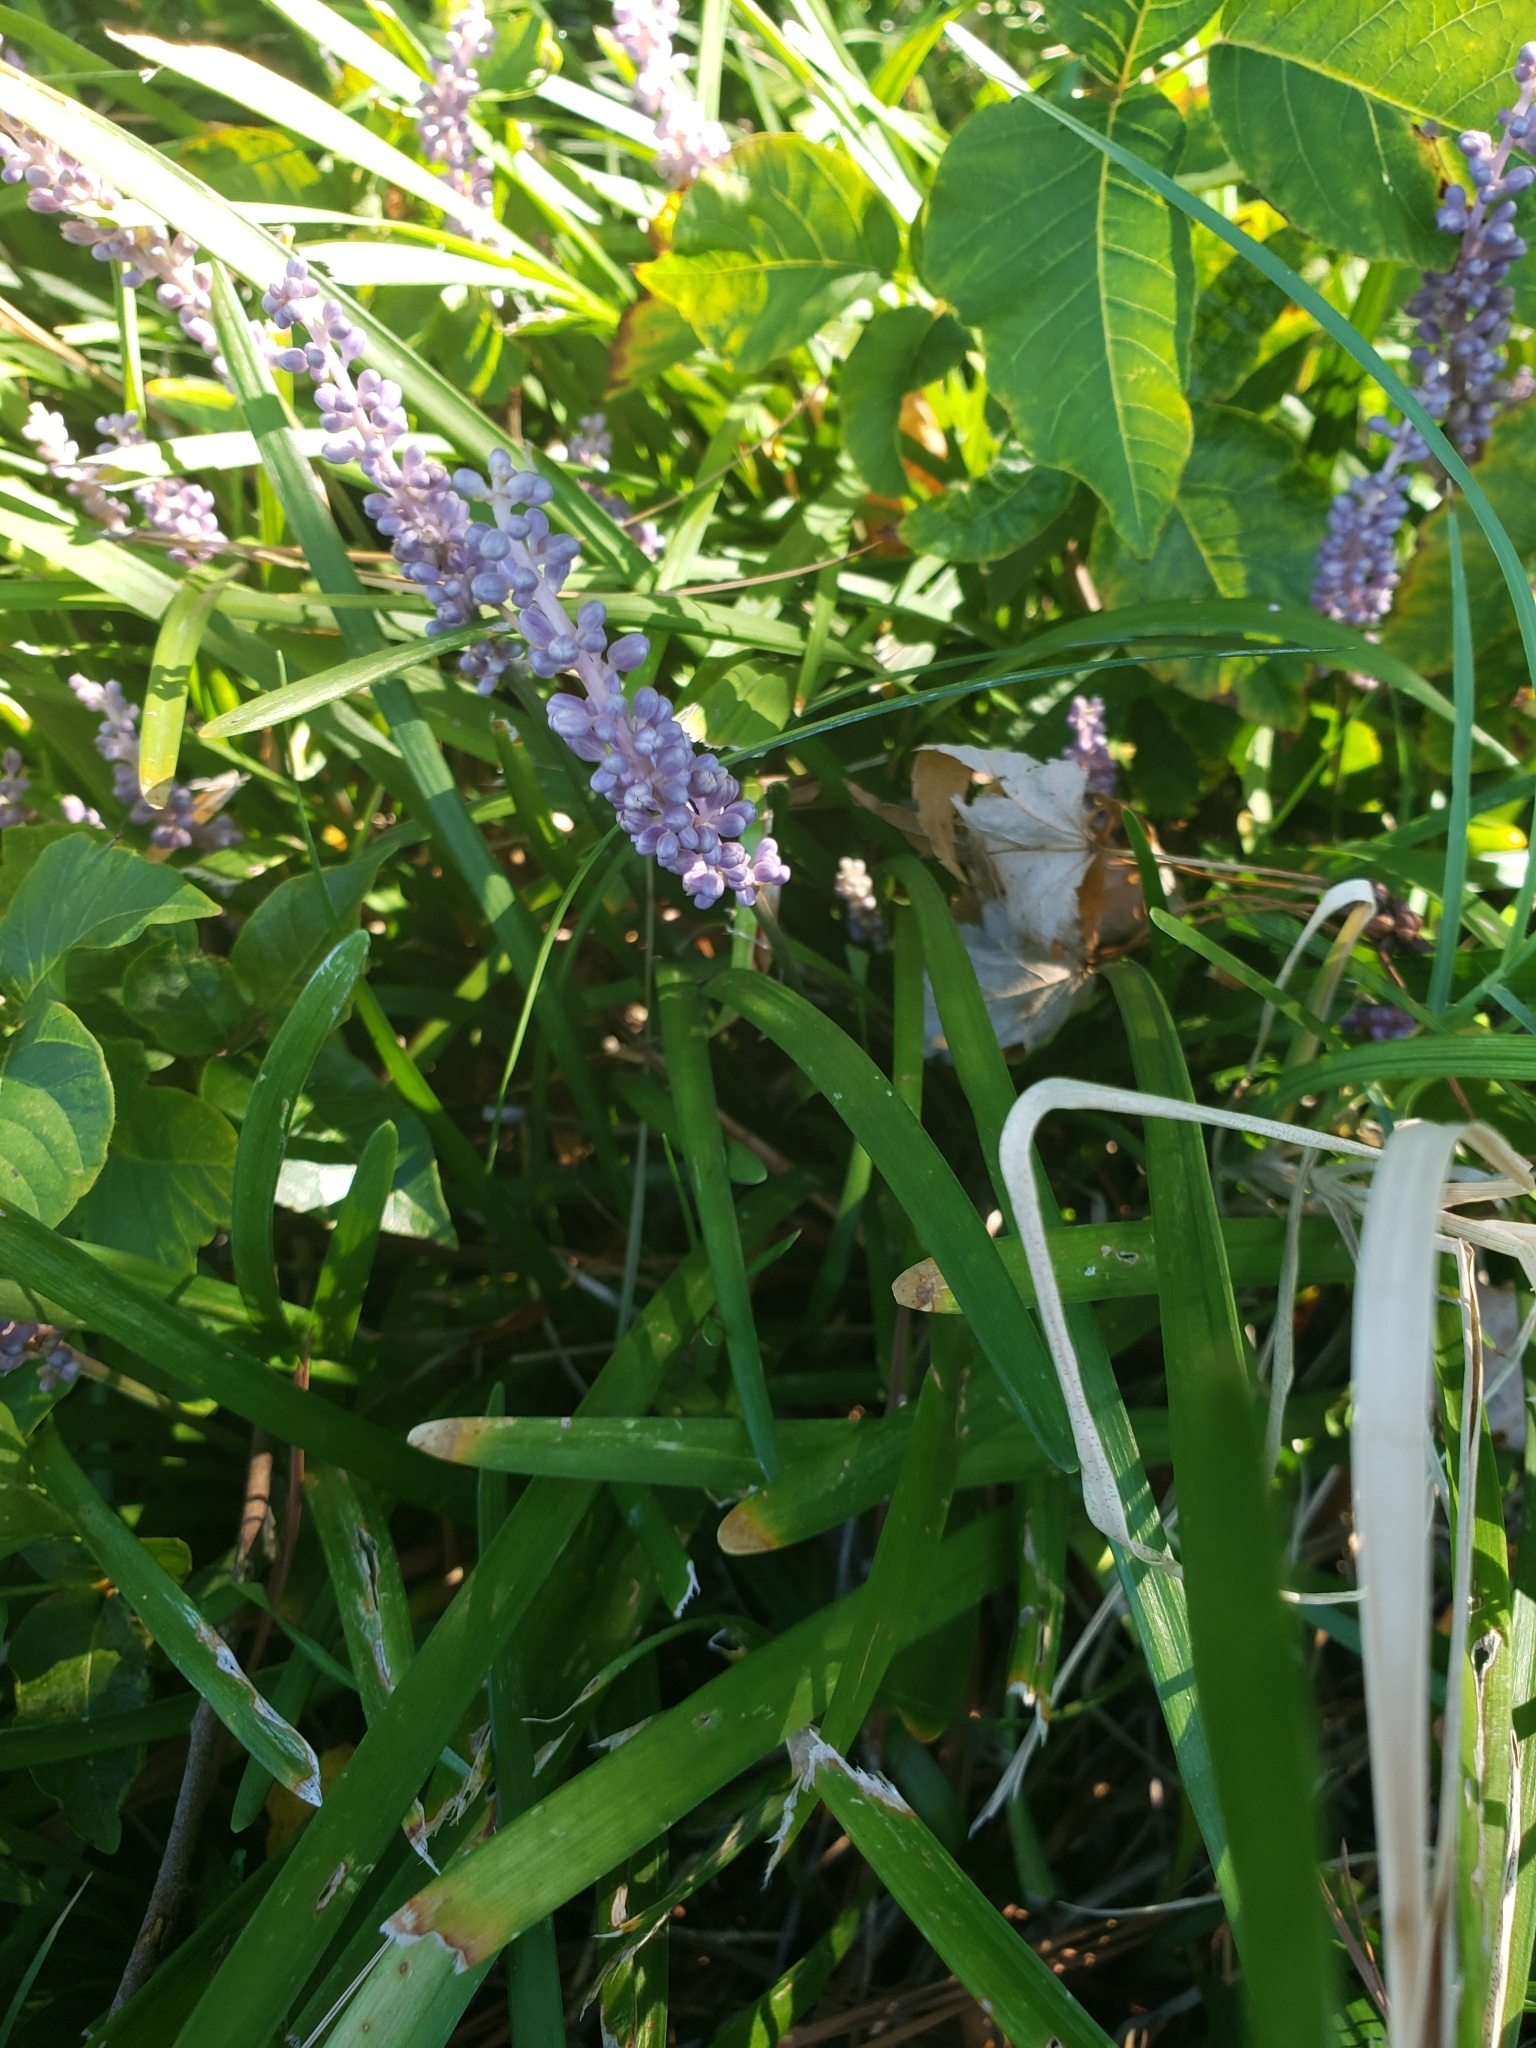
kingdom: Plantae
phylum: Tracheophyta
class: Liliopsida
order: Asparagales
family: Asparagaceae
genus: Liriope
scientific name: Liriope muscari
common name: Big blue lilyturf
